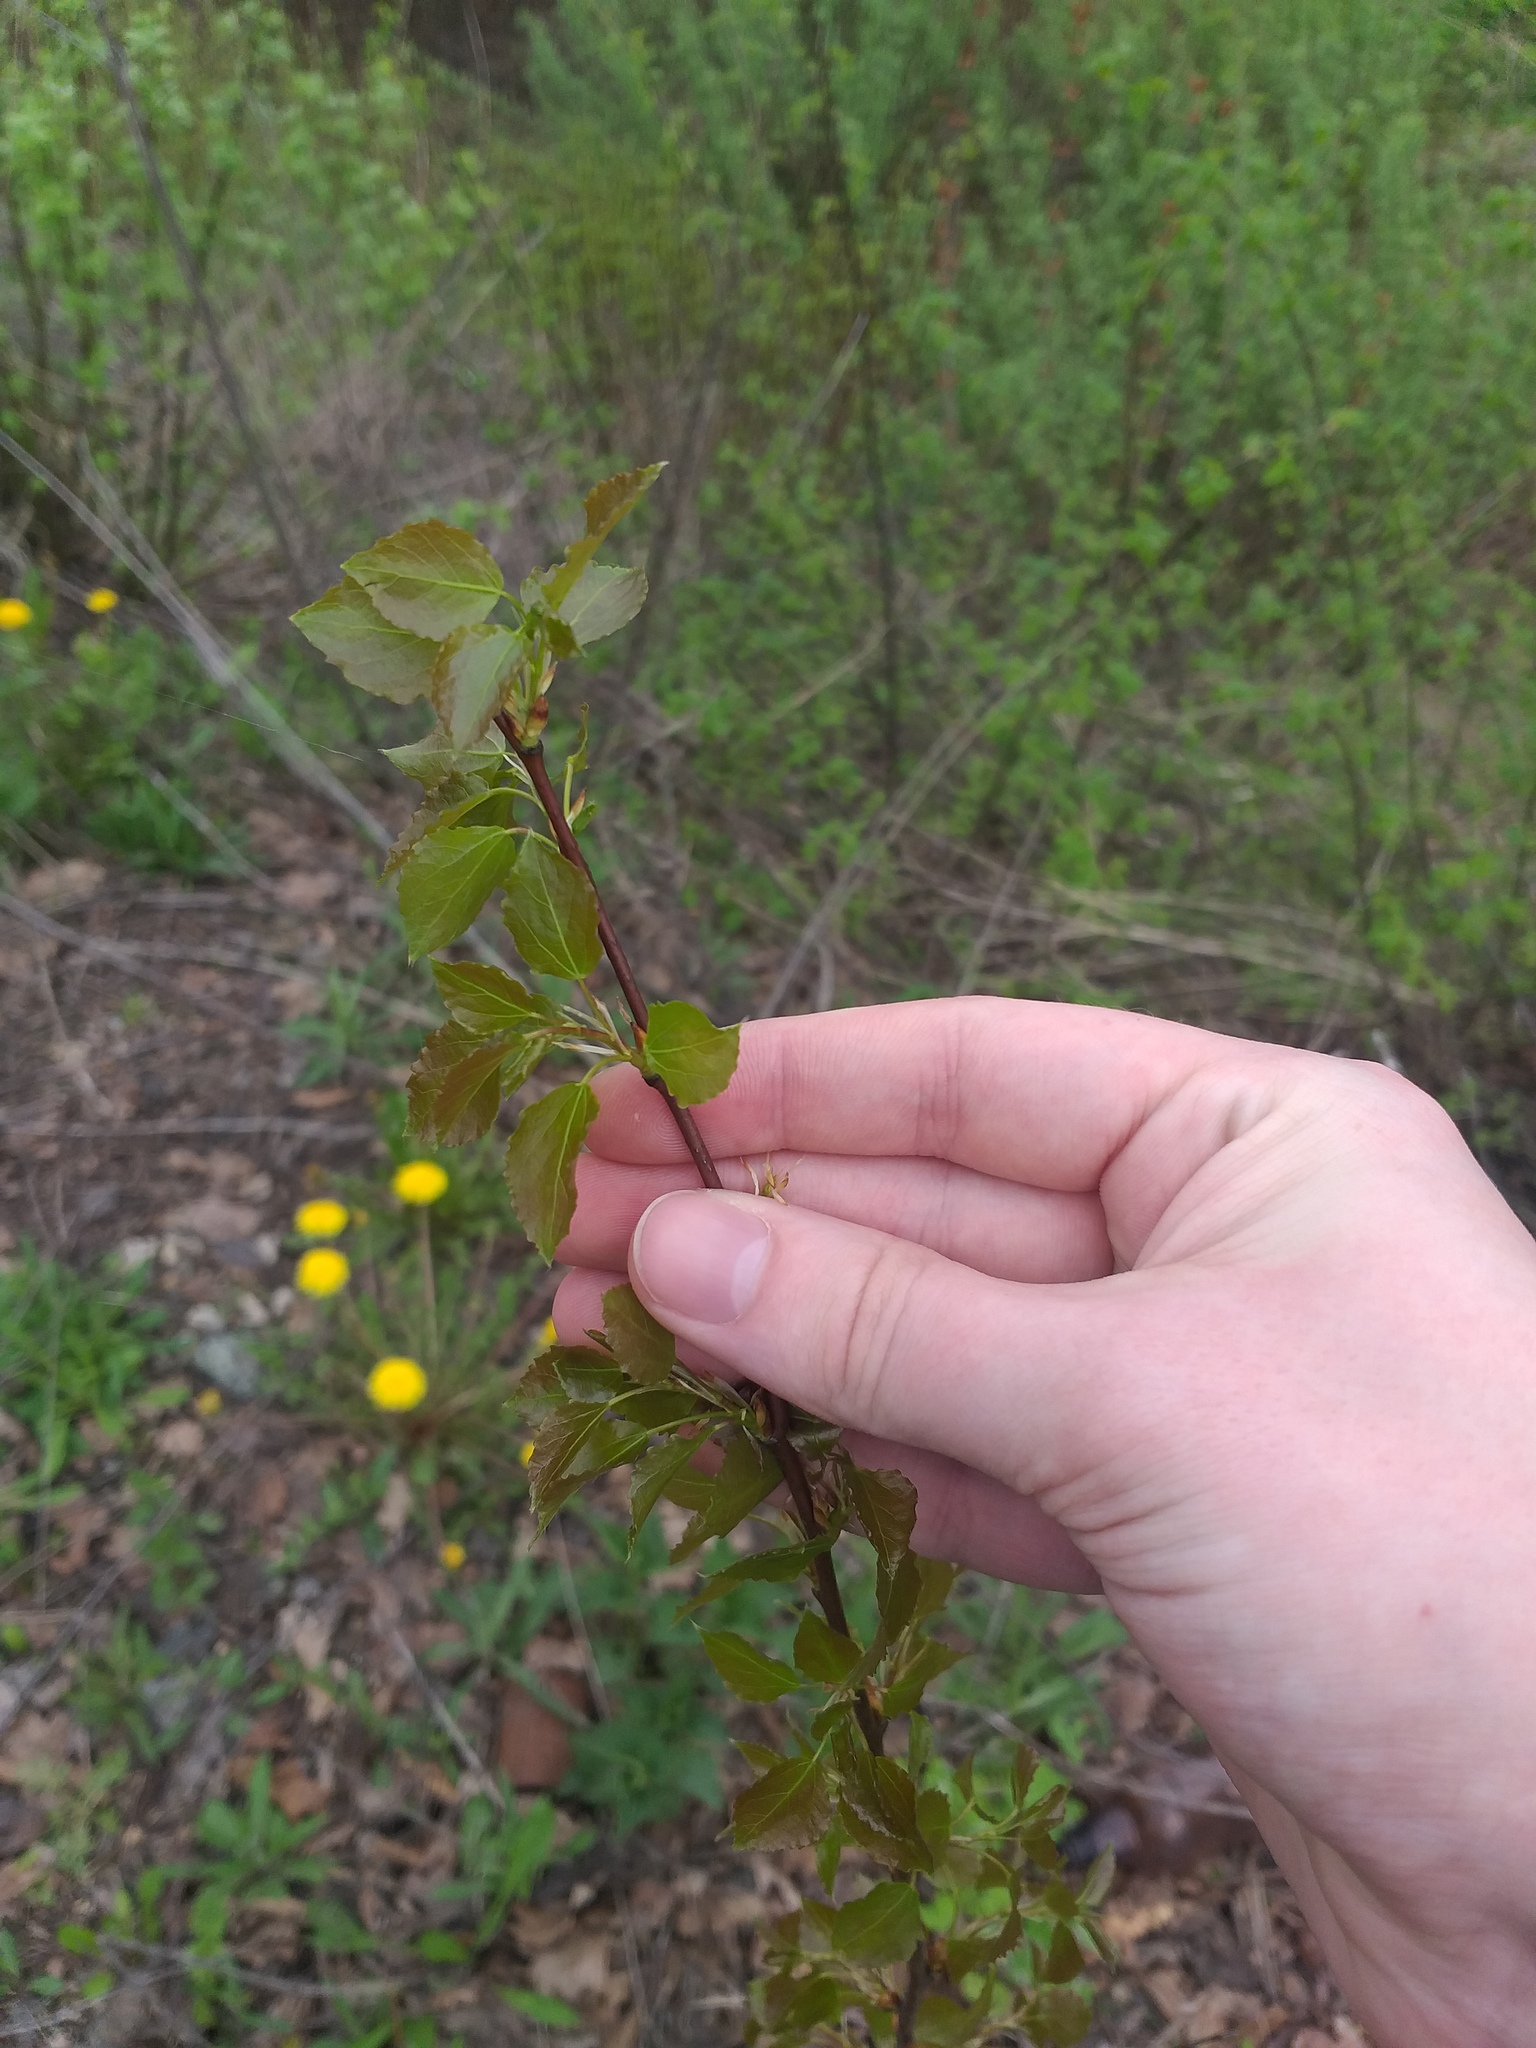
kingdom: Plantae
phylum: Tracheophyta
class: Magnoliopsida
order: Malpighiales
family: Salicaceae
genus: Populus
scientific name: Populus tremula
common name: European aspen
